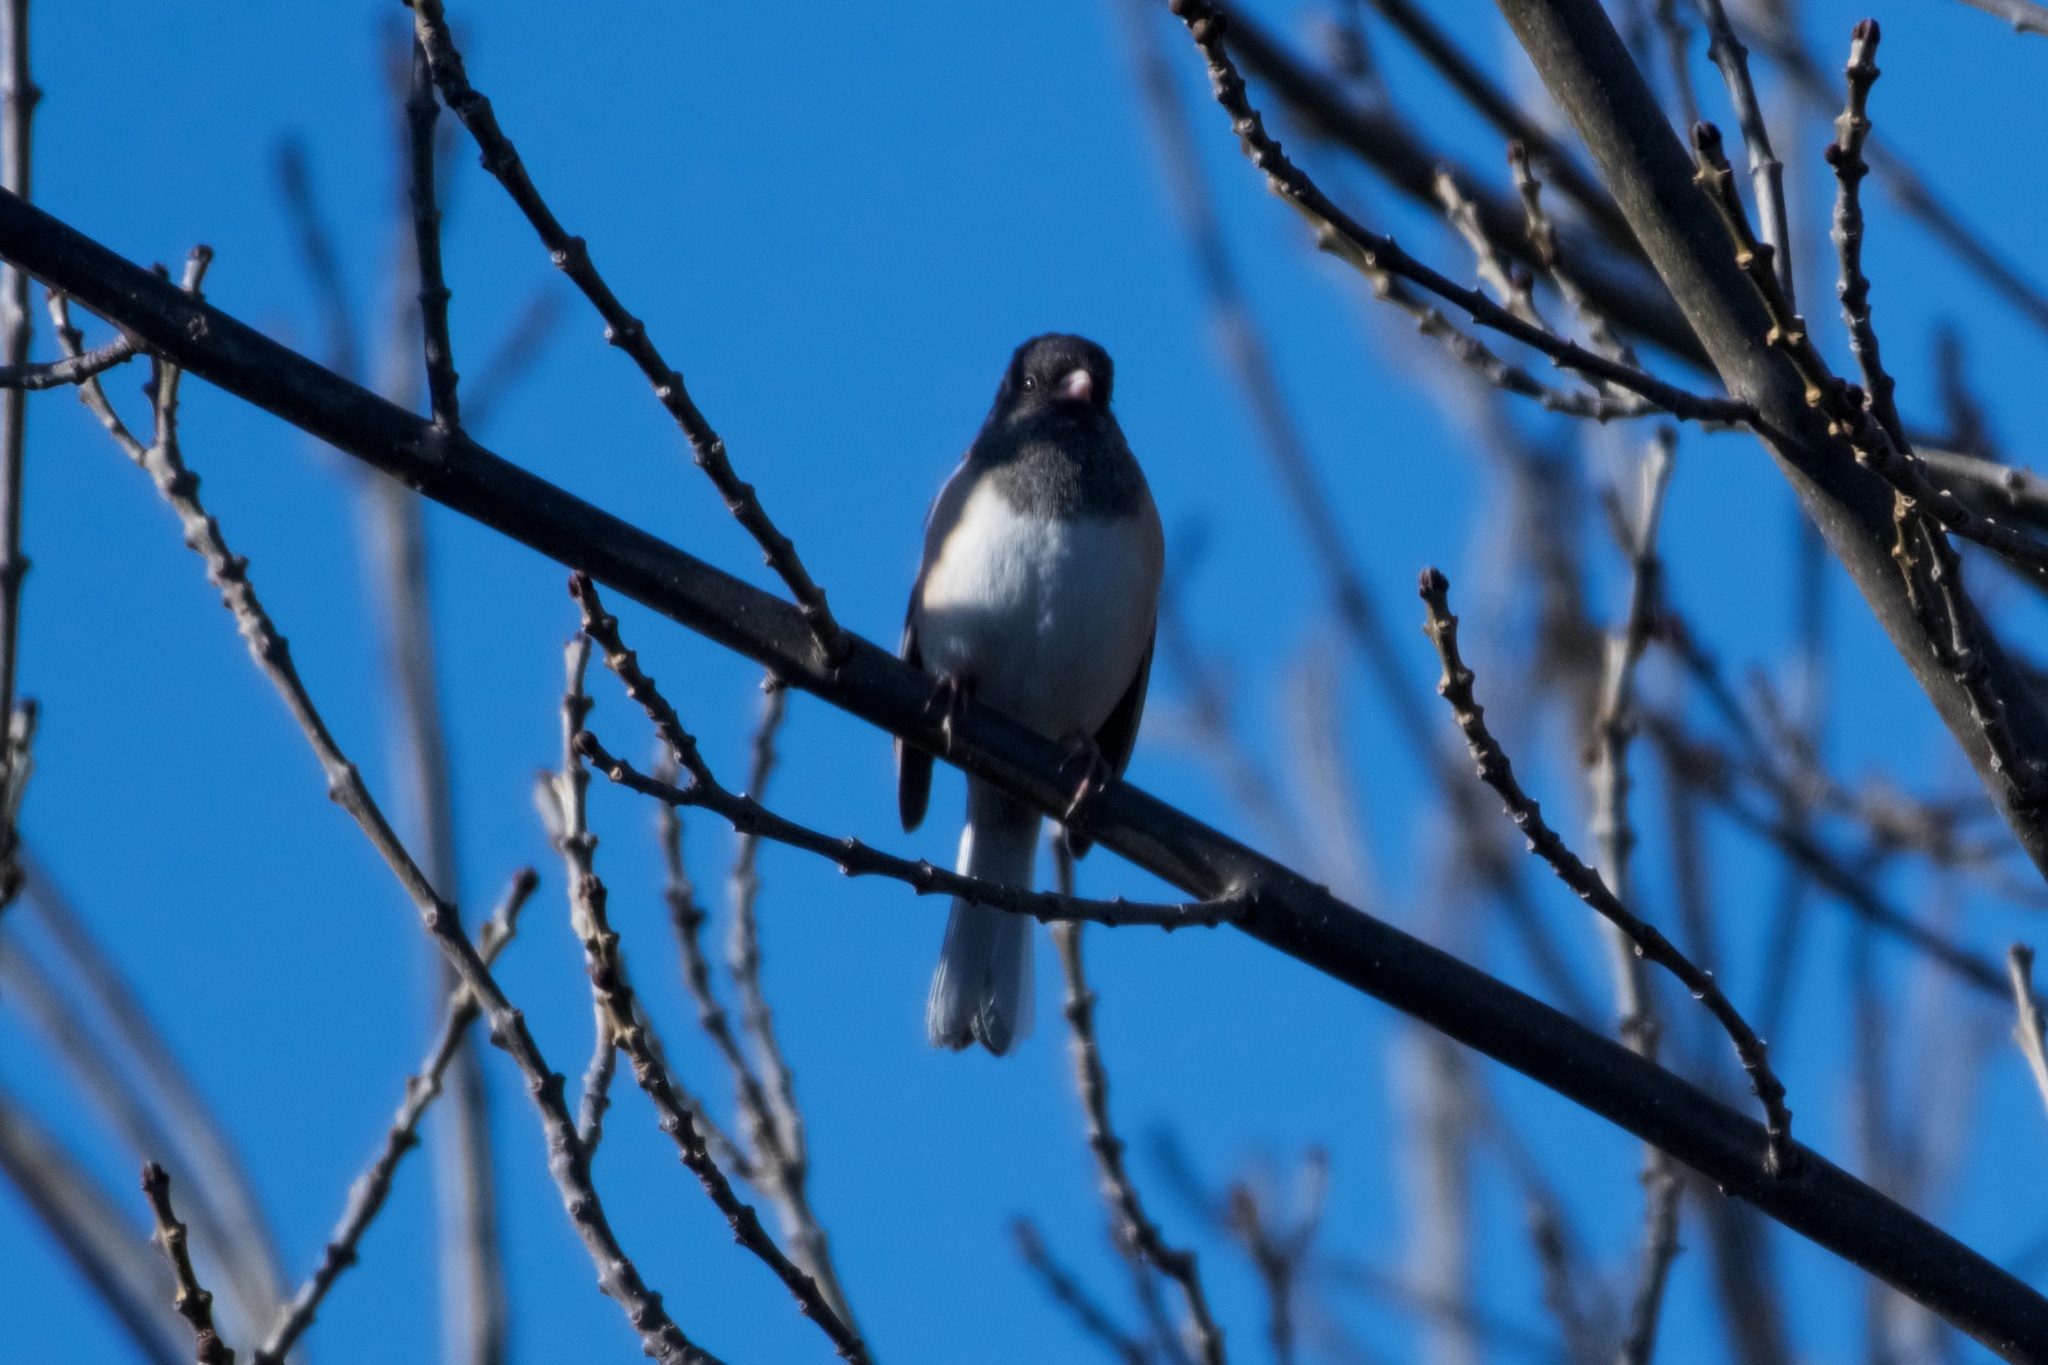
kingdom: Animalia
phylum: Chordata
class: Aves
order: Passeriformes
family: Passerellidae
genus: Junco
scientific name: Junco hyemalis
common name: Dark-eyed junco
